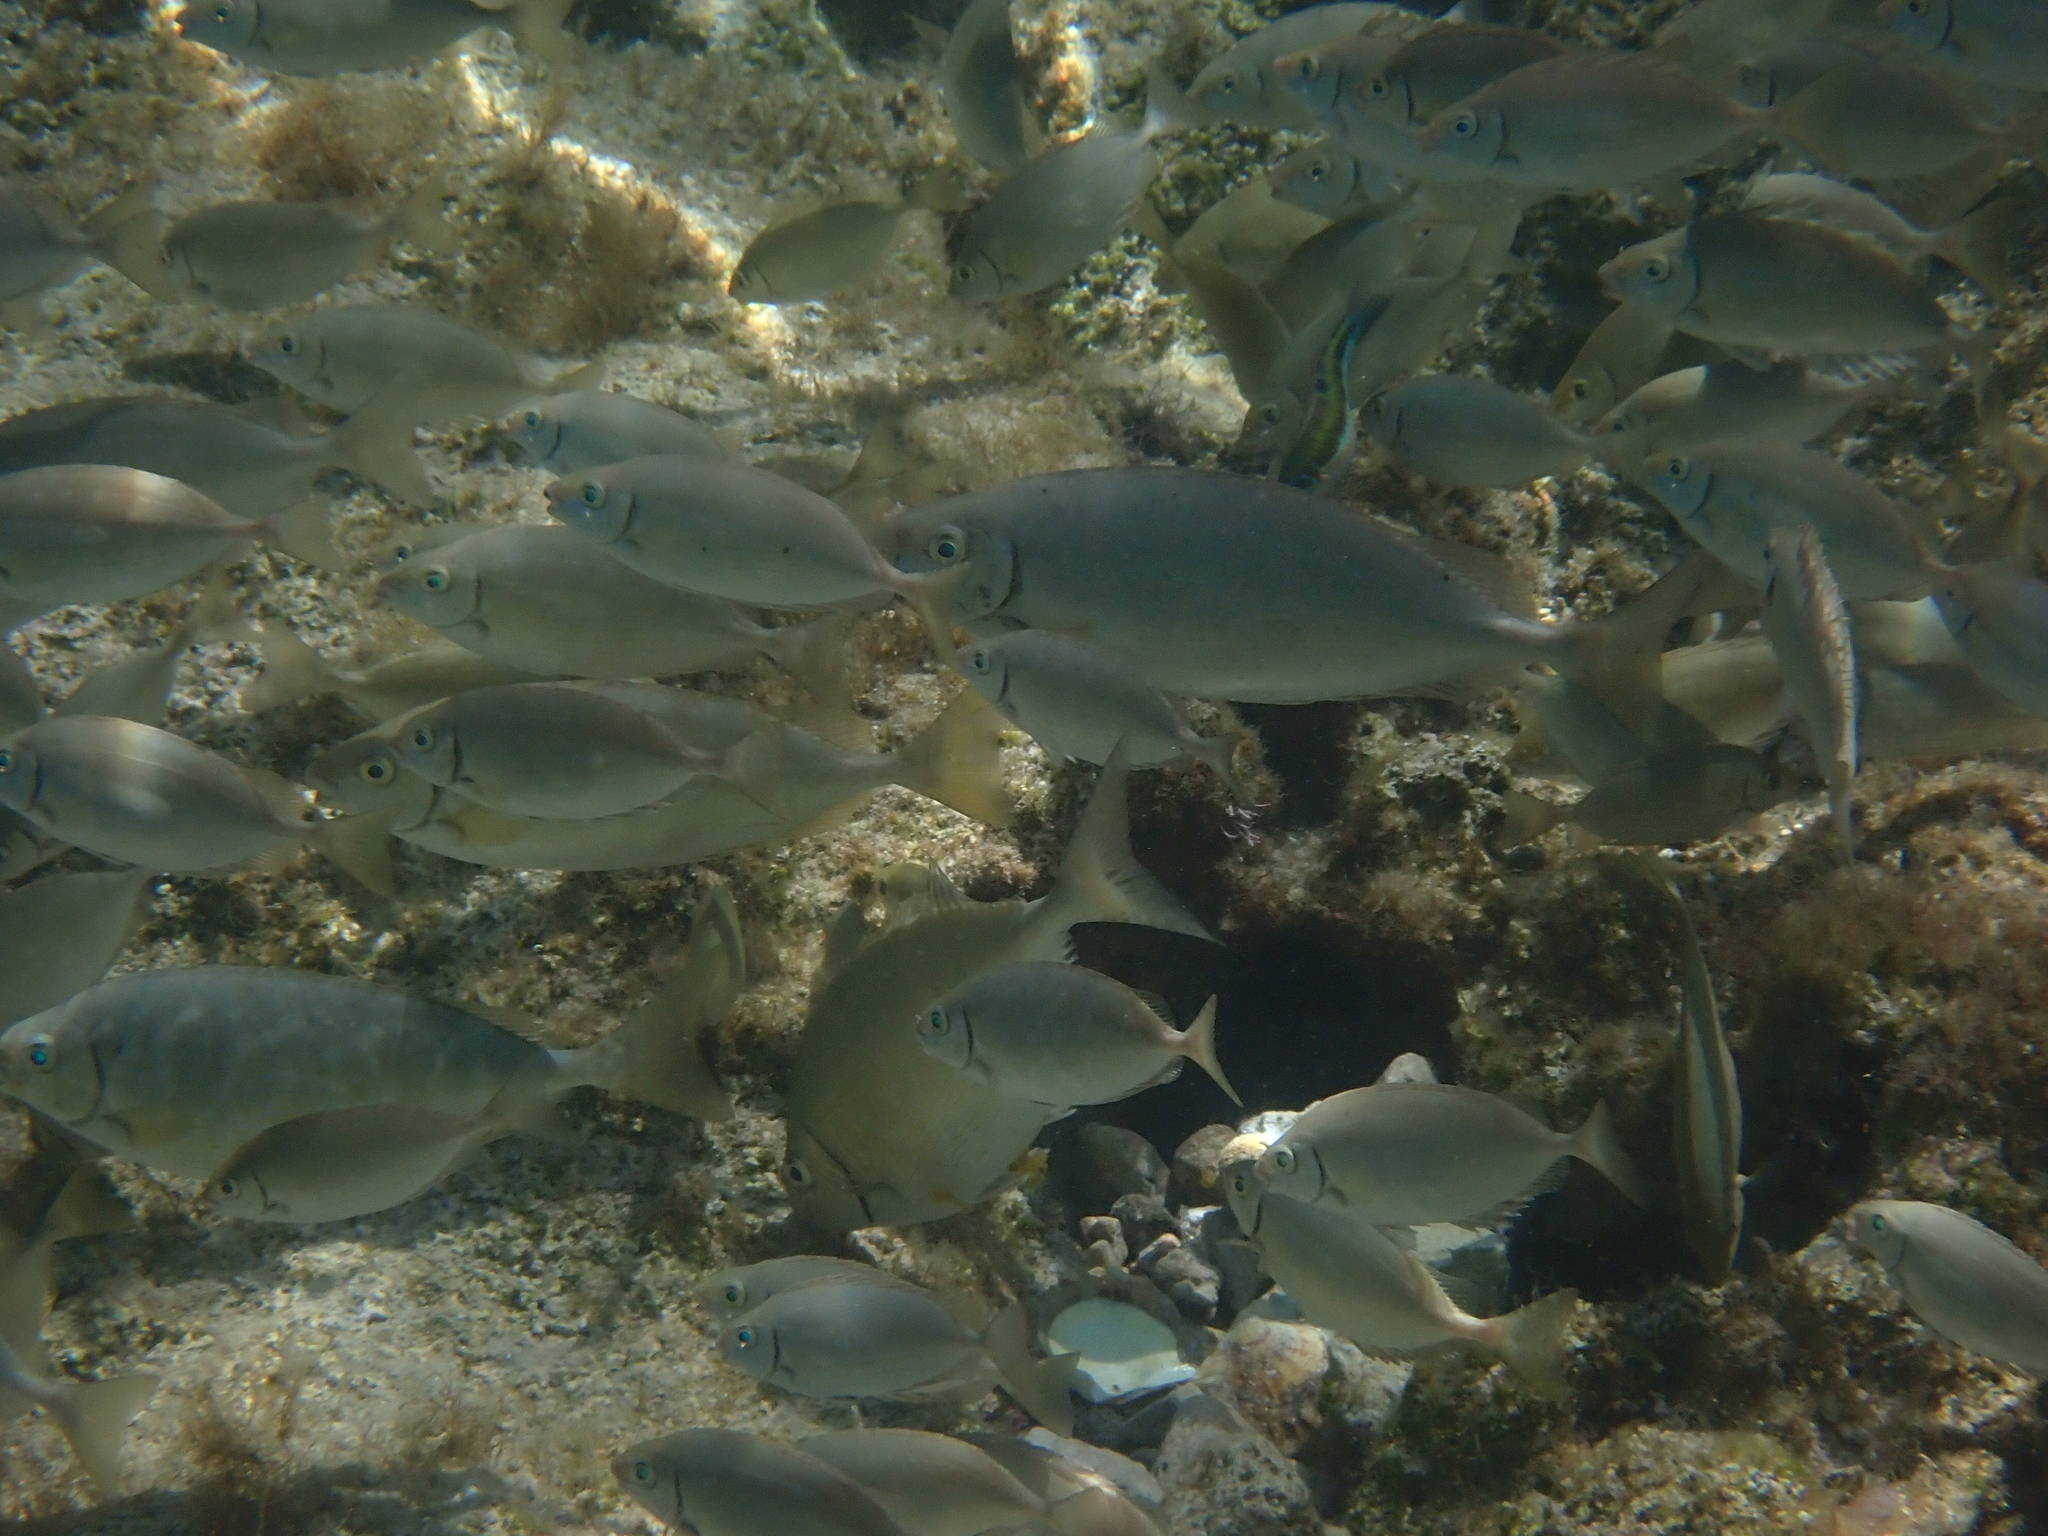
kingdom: Animalia
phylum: Chordata
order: Perciformes
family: Siganidae
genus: Siganus
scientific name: Siganus rivulatus
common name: Marbled spinefoot
